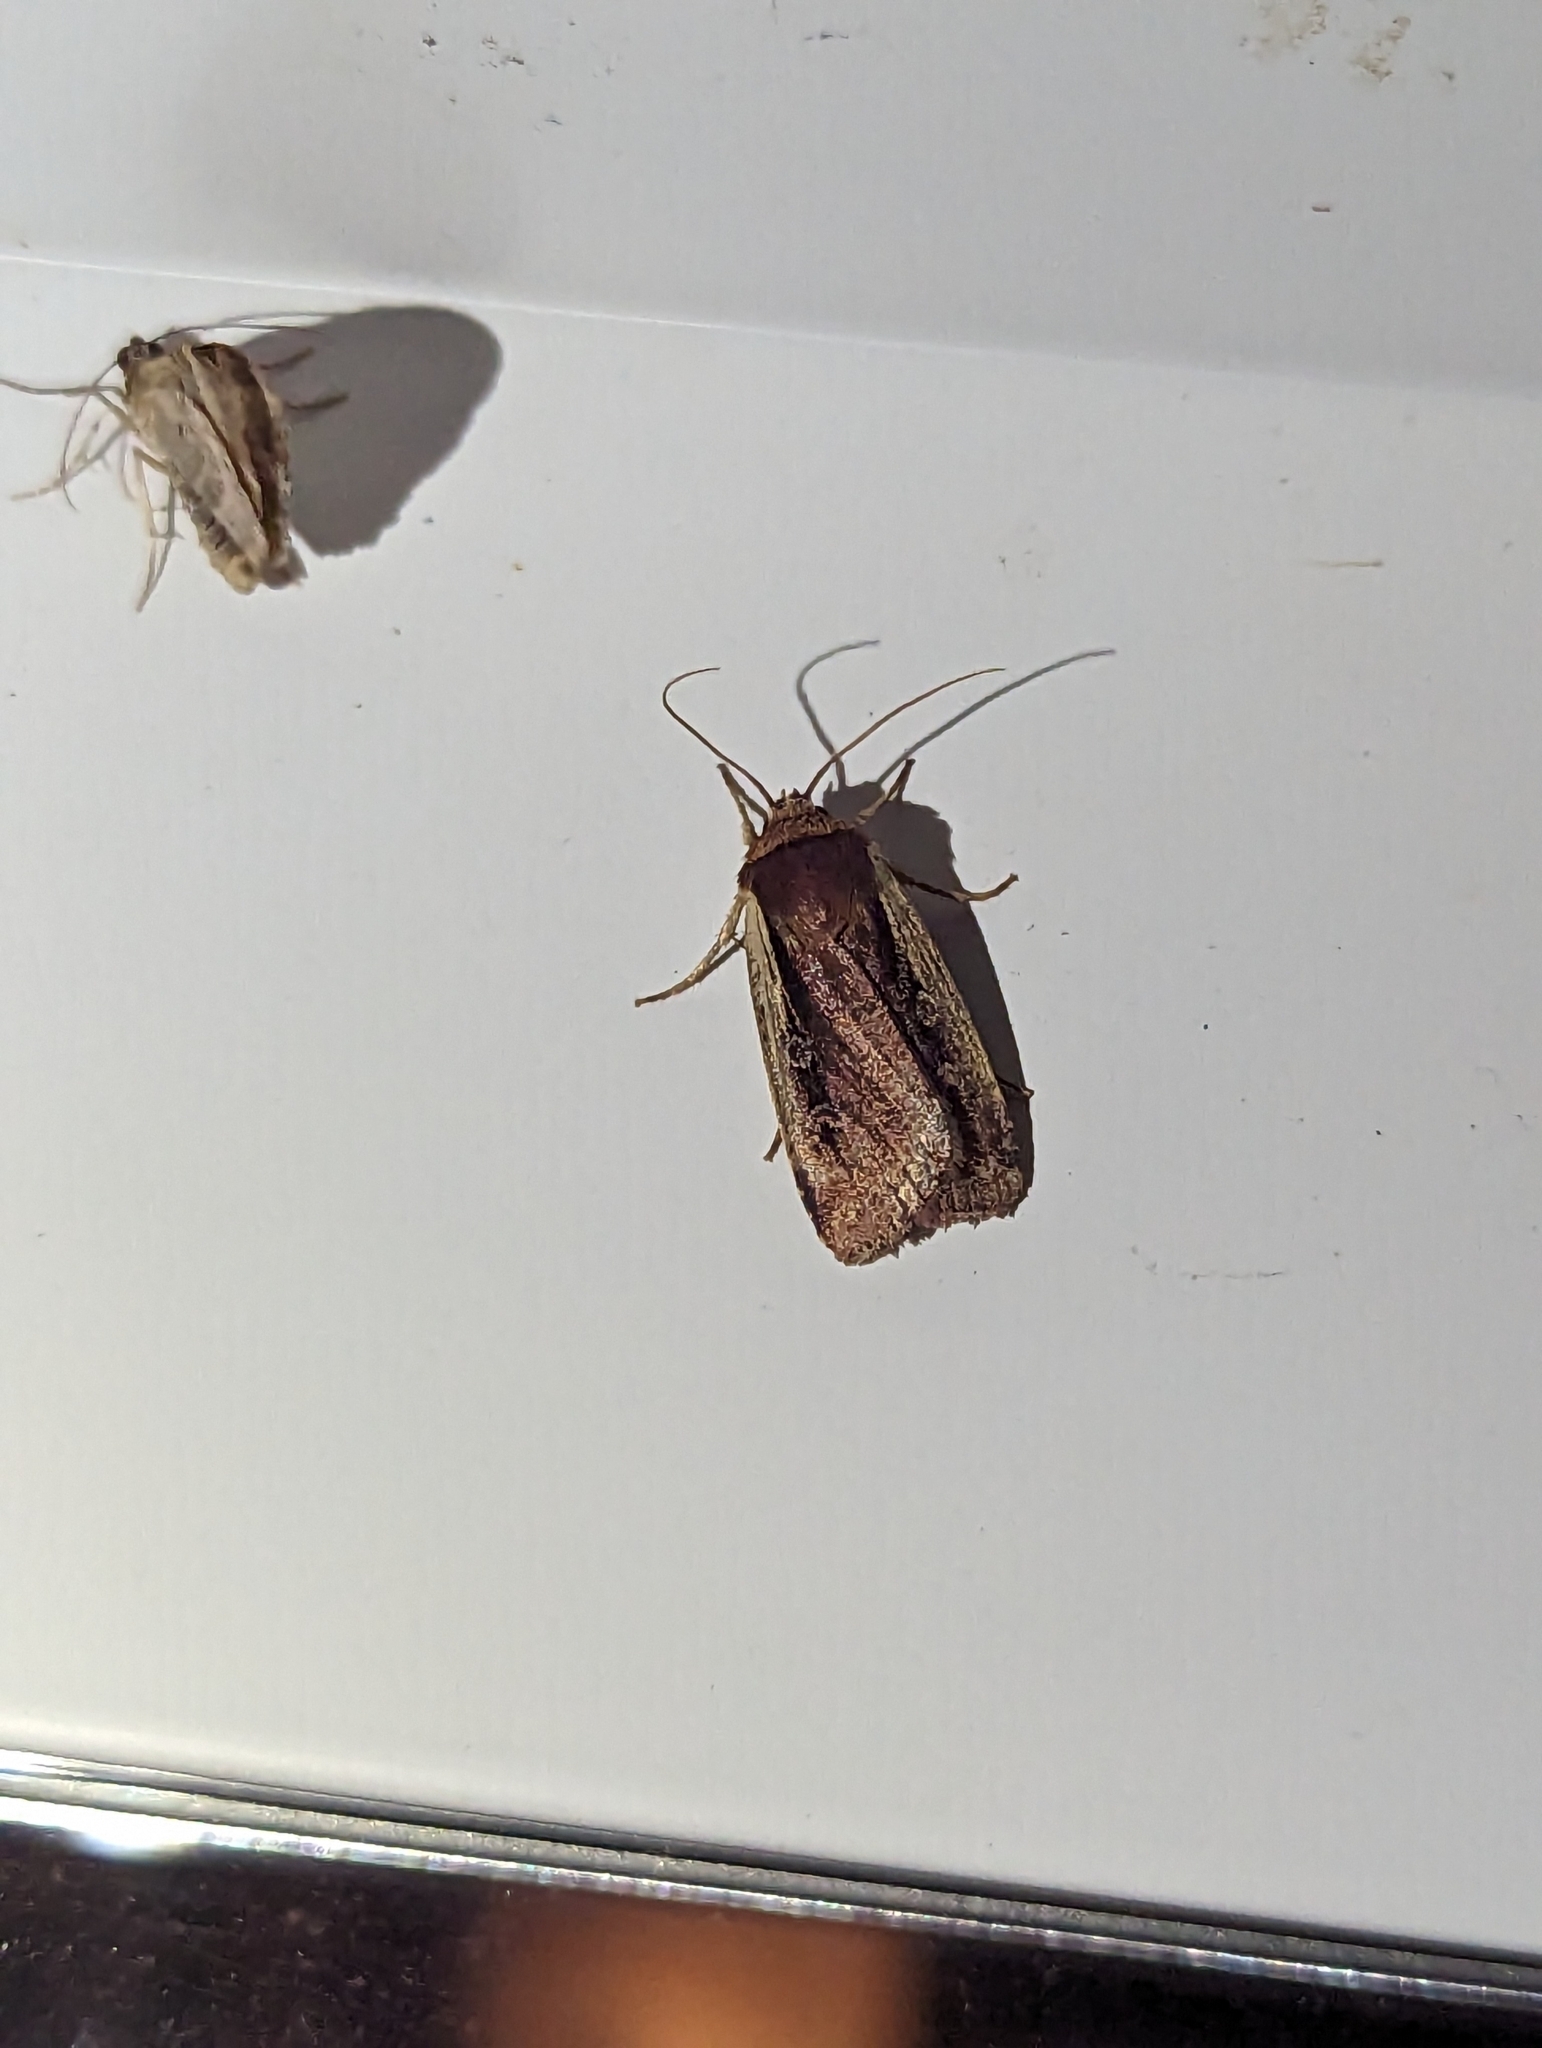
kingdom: Animalia
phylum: Arthropoda
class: Insecta
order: Lepidoptera
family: Noctuidae
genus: Ochropleura
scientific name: Ochropleura implecta
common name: Flame-shouldered dart
